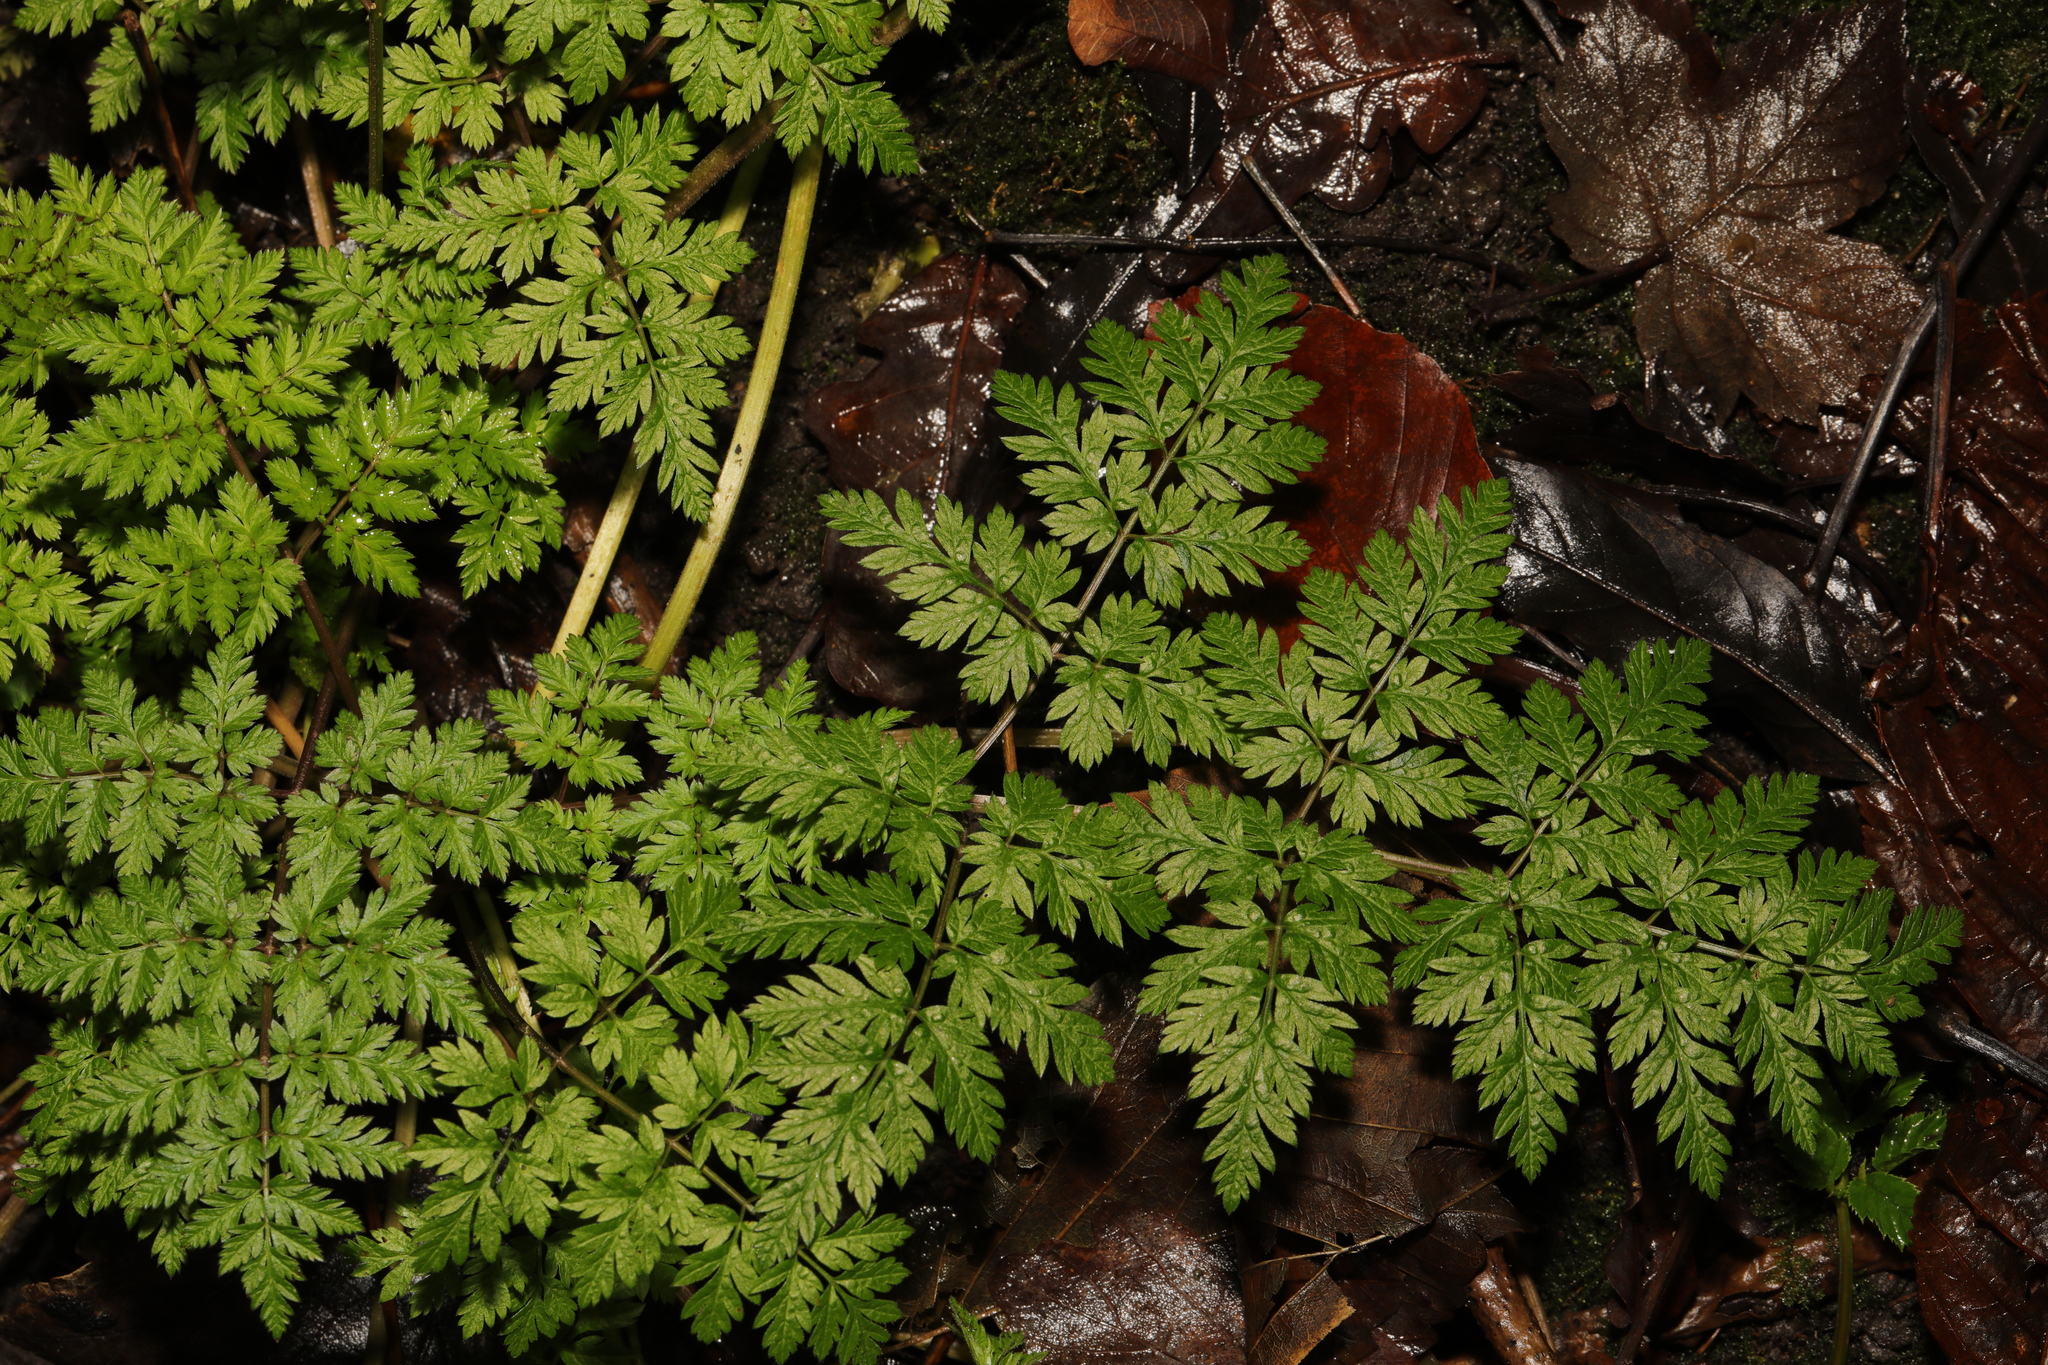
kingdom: Plantae
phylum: Tracheophyta
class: Magnoliopsida
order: Apiales
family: Apiaceae
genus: Anthriscus
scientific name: Anthriscus sylvestris
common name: Cow parsley
